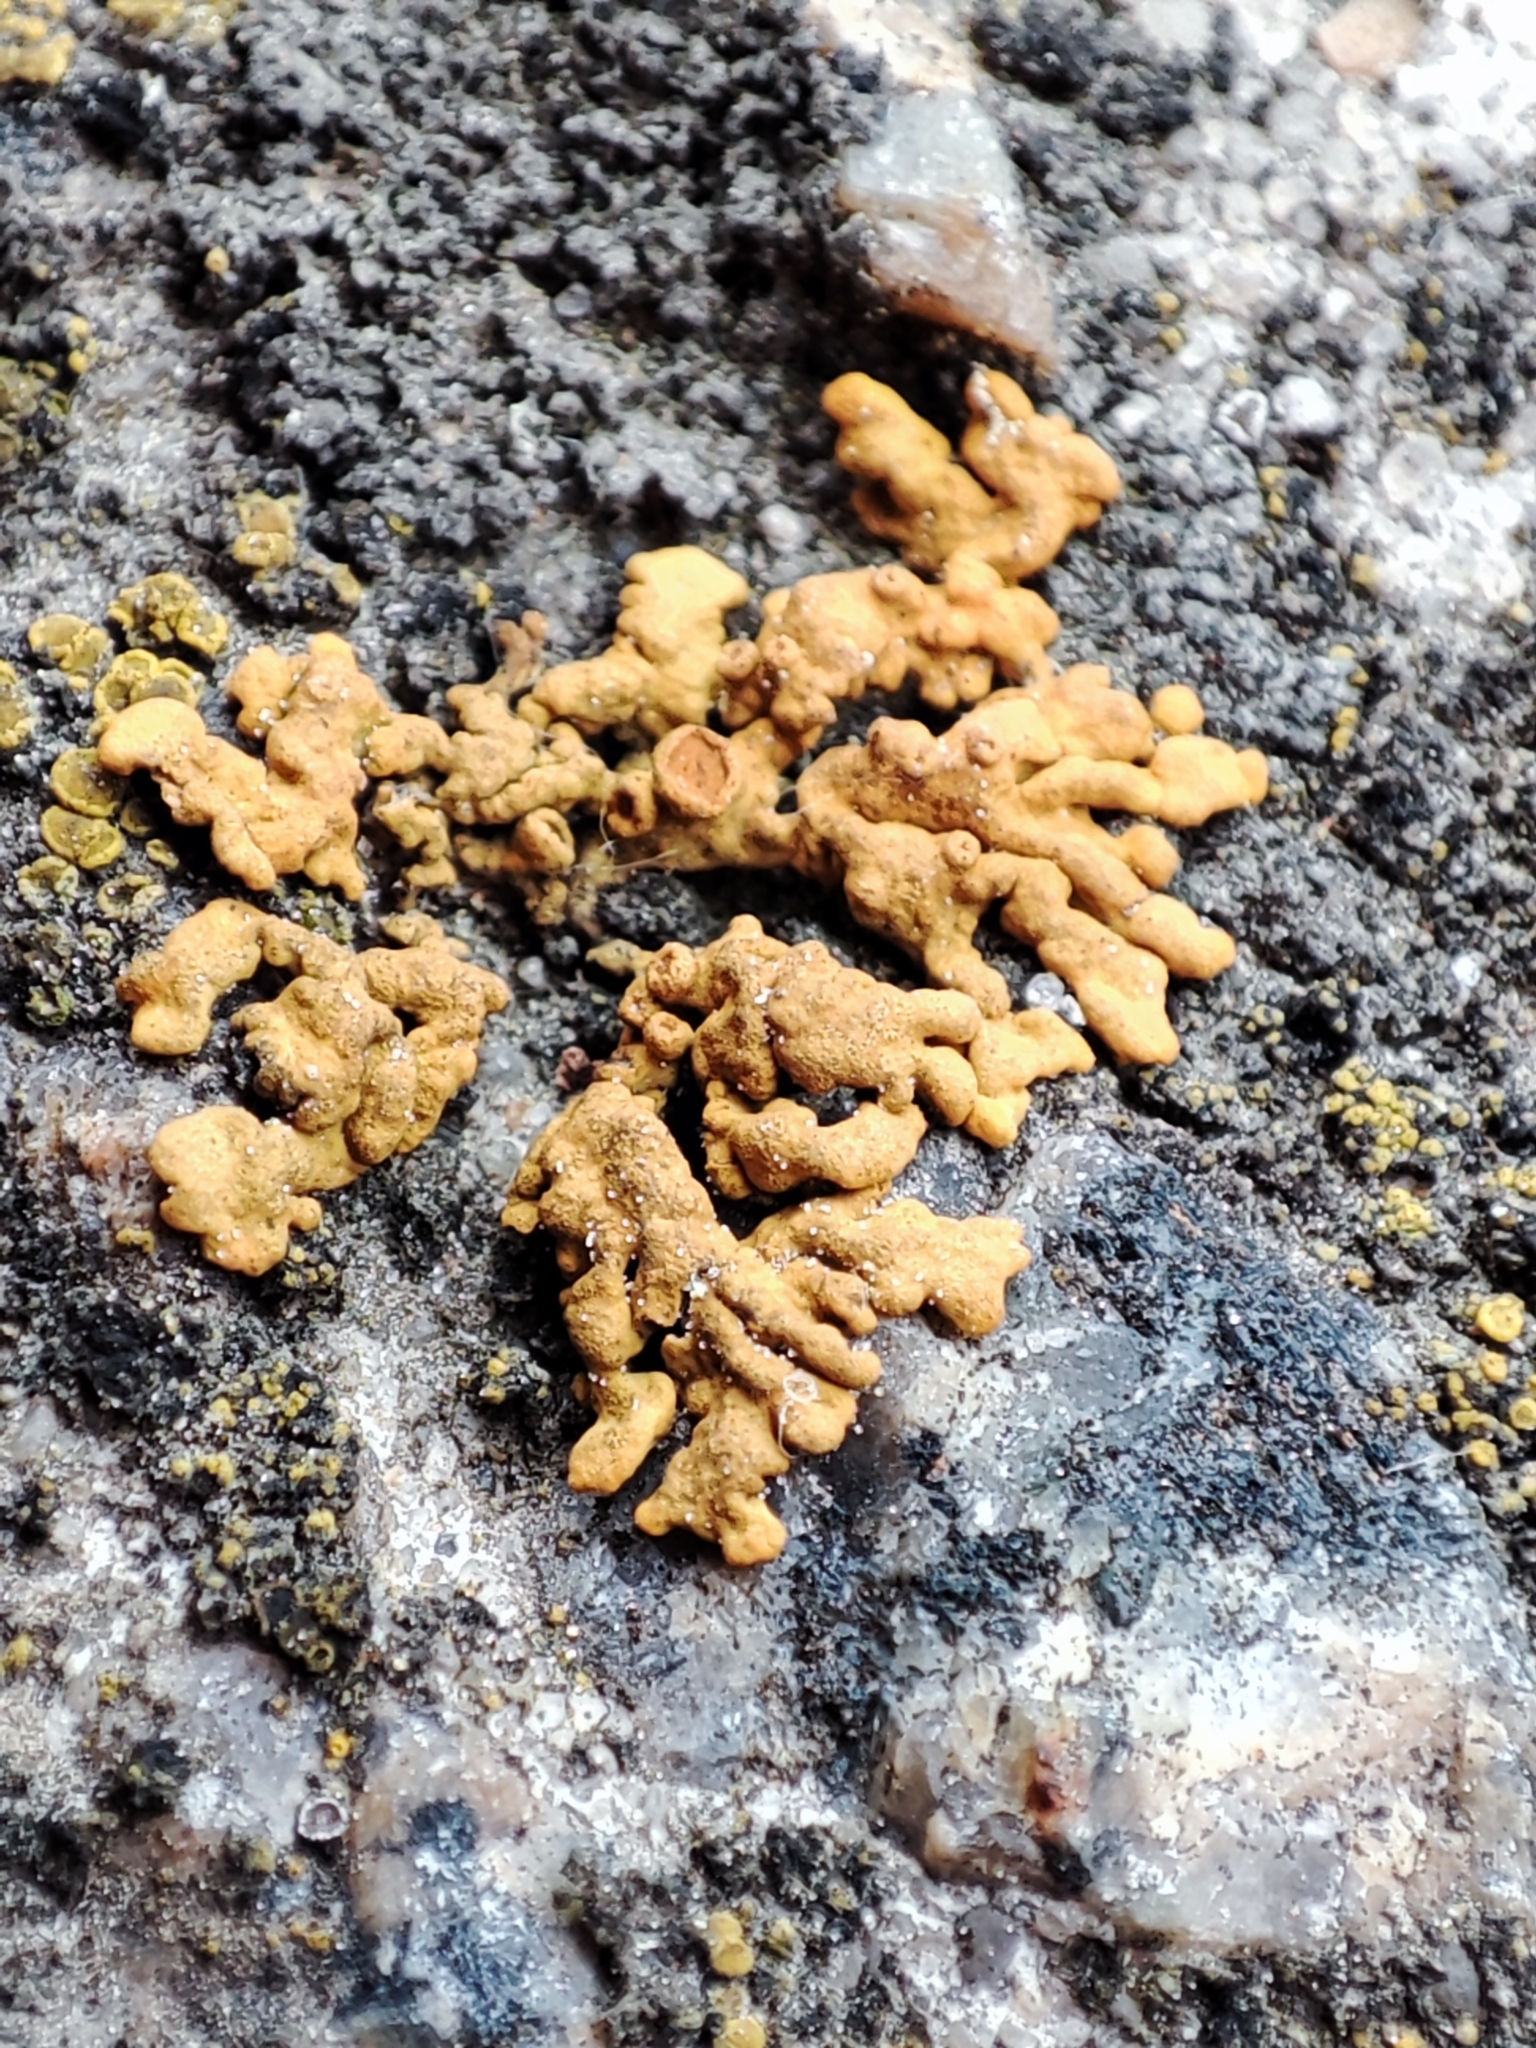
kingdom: Fungi
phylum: Ascomycota
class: Lecanoromycetes
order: Teloschistales
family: Teloschistaceae
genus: Xanthoria
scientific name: Xanthoria elegans
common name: Elegant sunburst lichen
